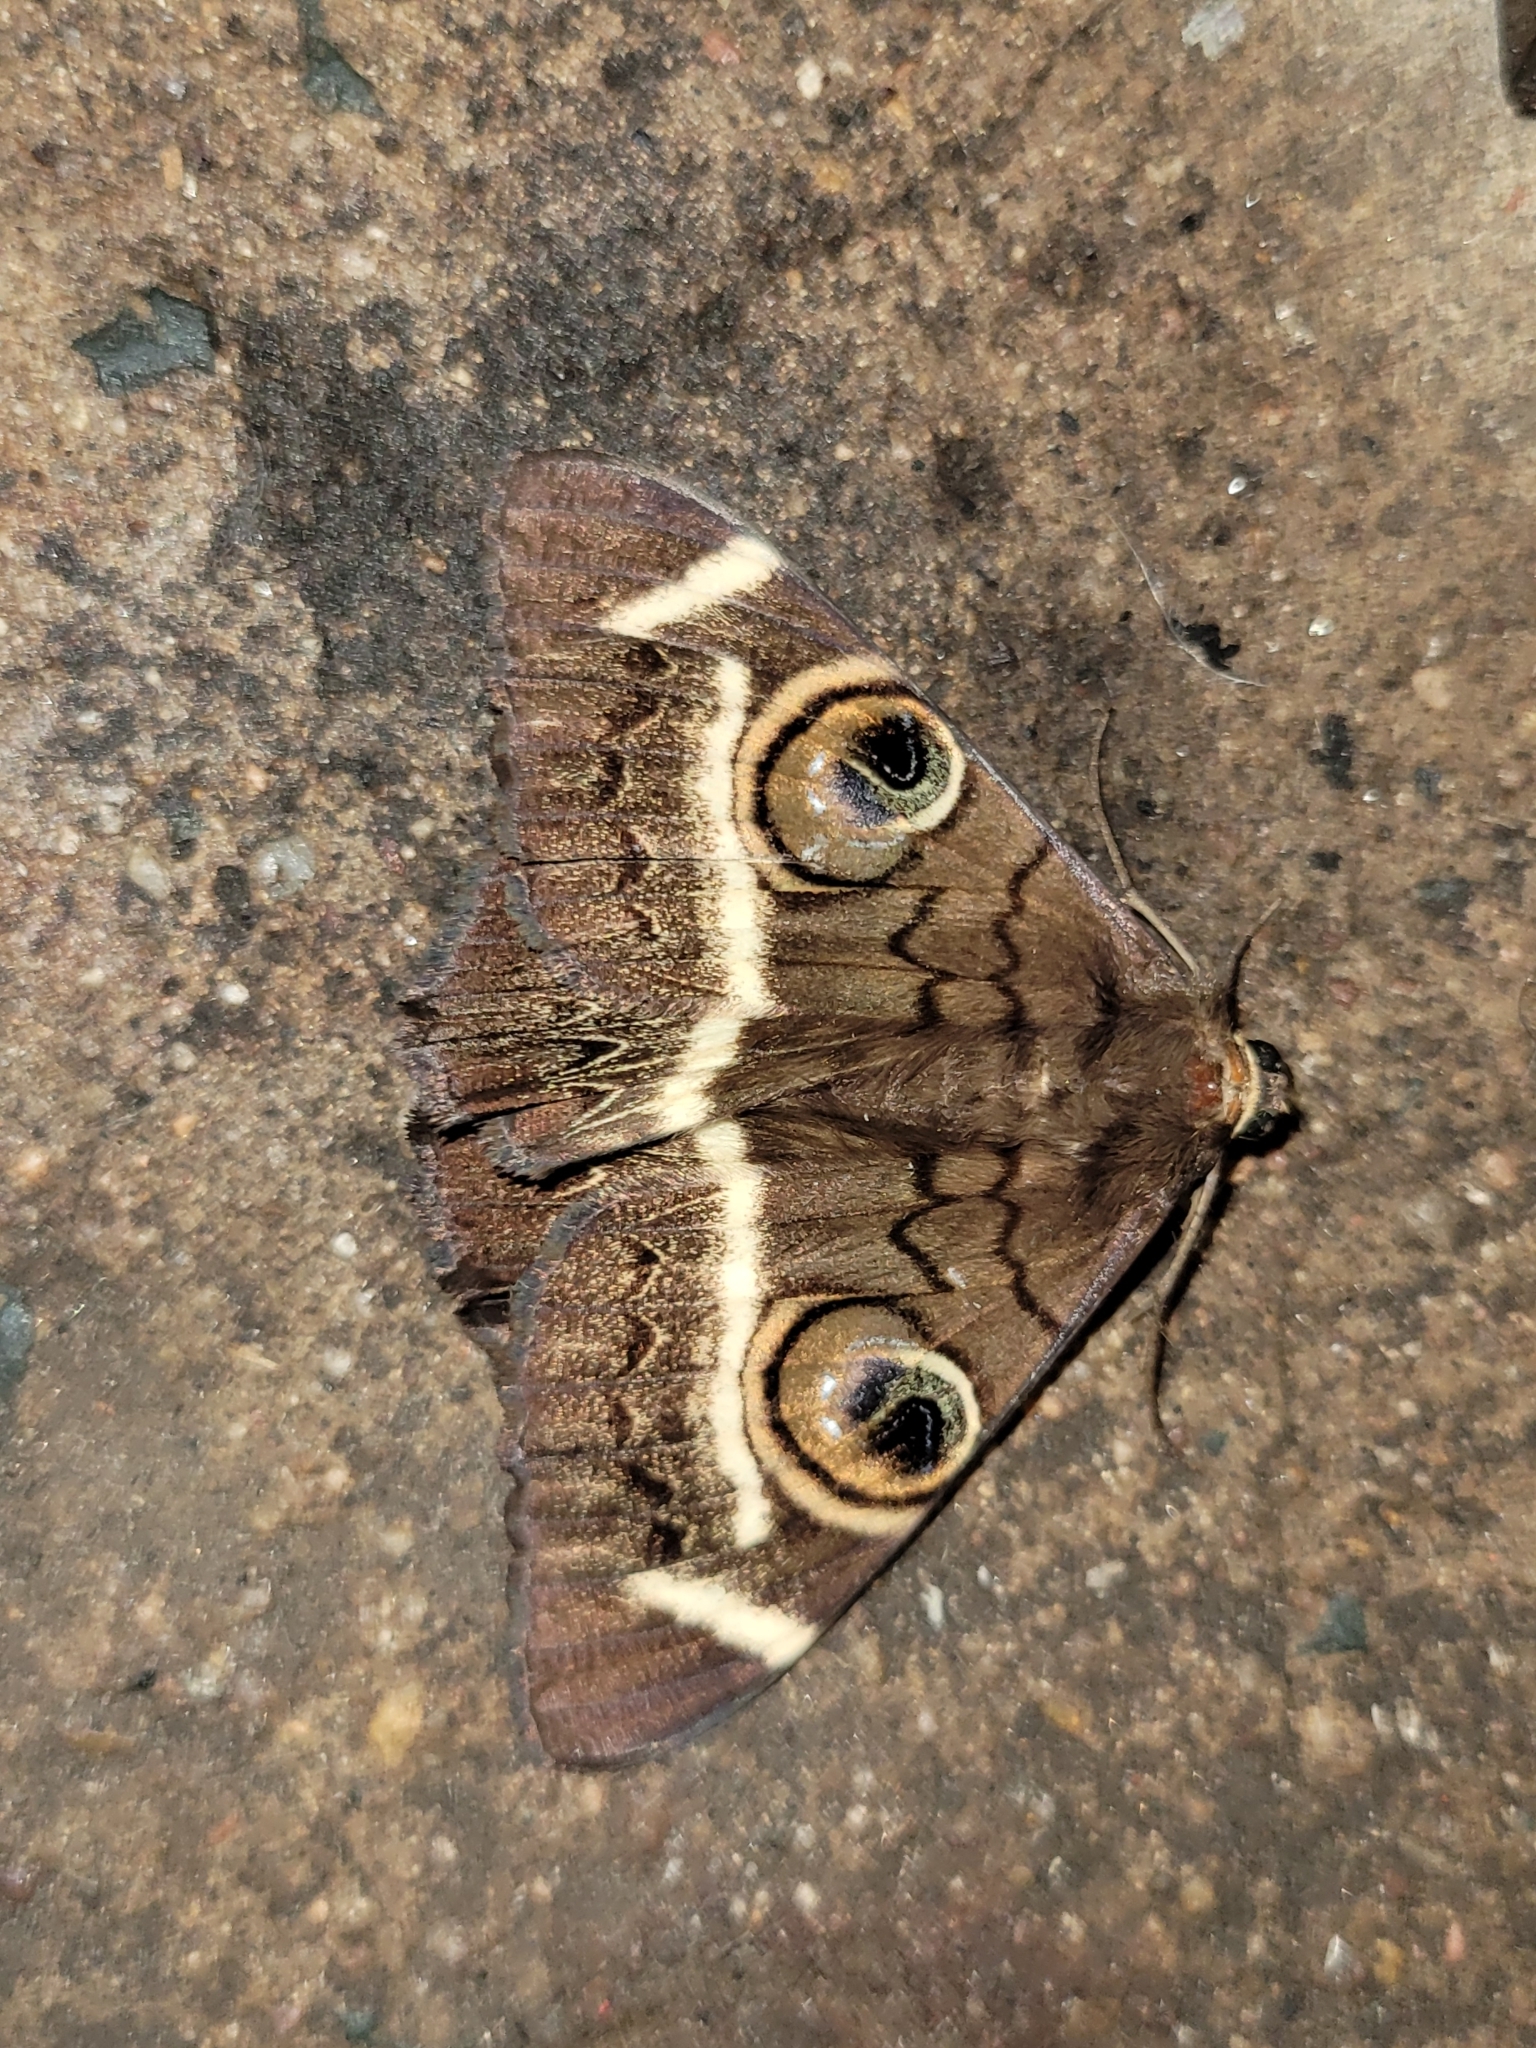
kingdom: Animalia
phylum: Arthropoda
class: Insecta
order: Lepidoptera
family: Erebidae
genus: Cyligramma
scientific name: Cyligramma latona
